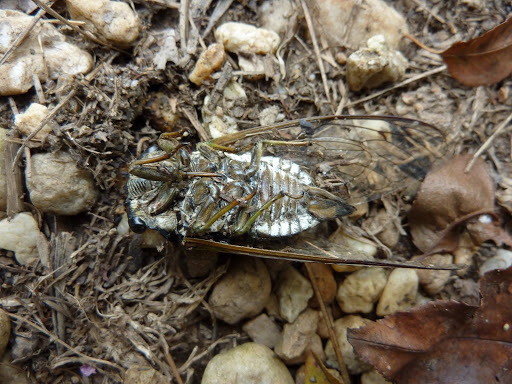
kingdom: Animalia
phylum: Arthropoda
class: Insecta
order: Hemiptera
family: Cicadidae
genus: Neotibicen
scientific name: Neotibicen tibicen
